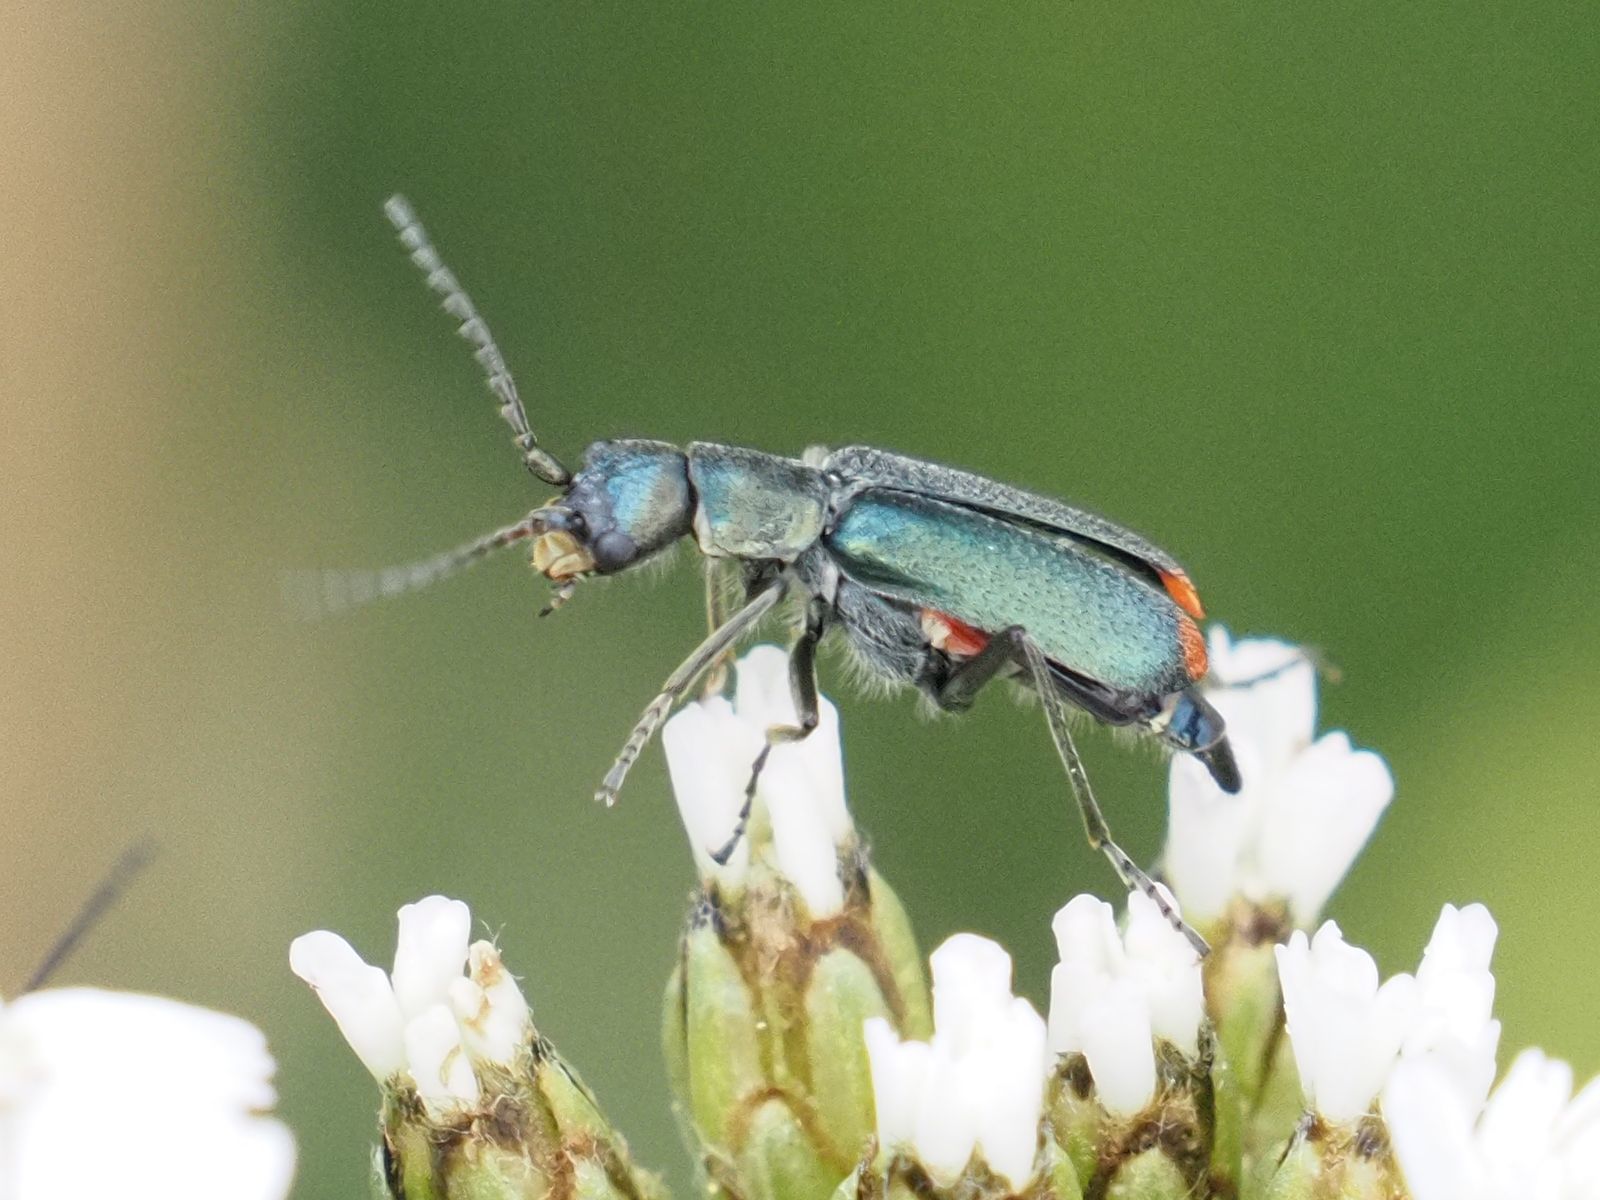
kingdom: Animalia
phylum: Arthropoda
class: Insecta
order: Coleoptera
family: Malachiidae
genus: Cordylepherus
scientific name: Cordylepherus viridis
